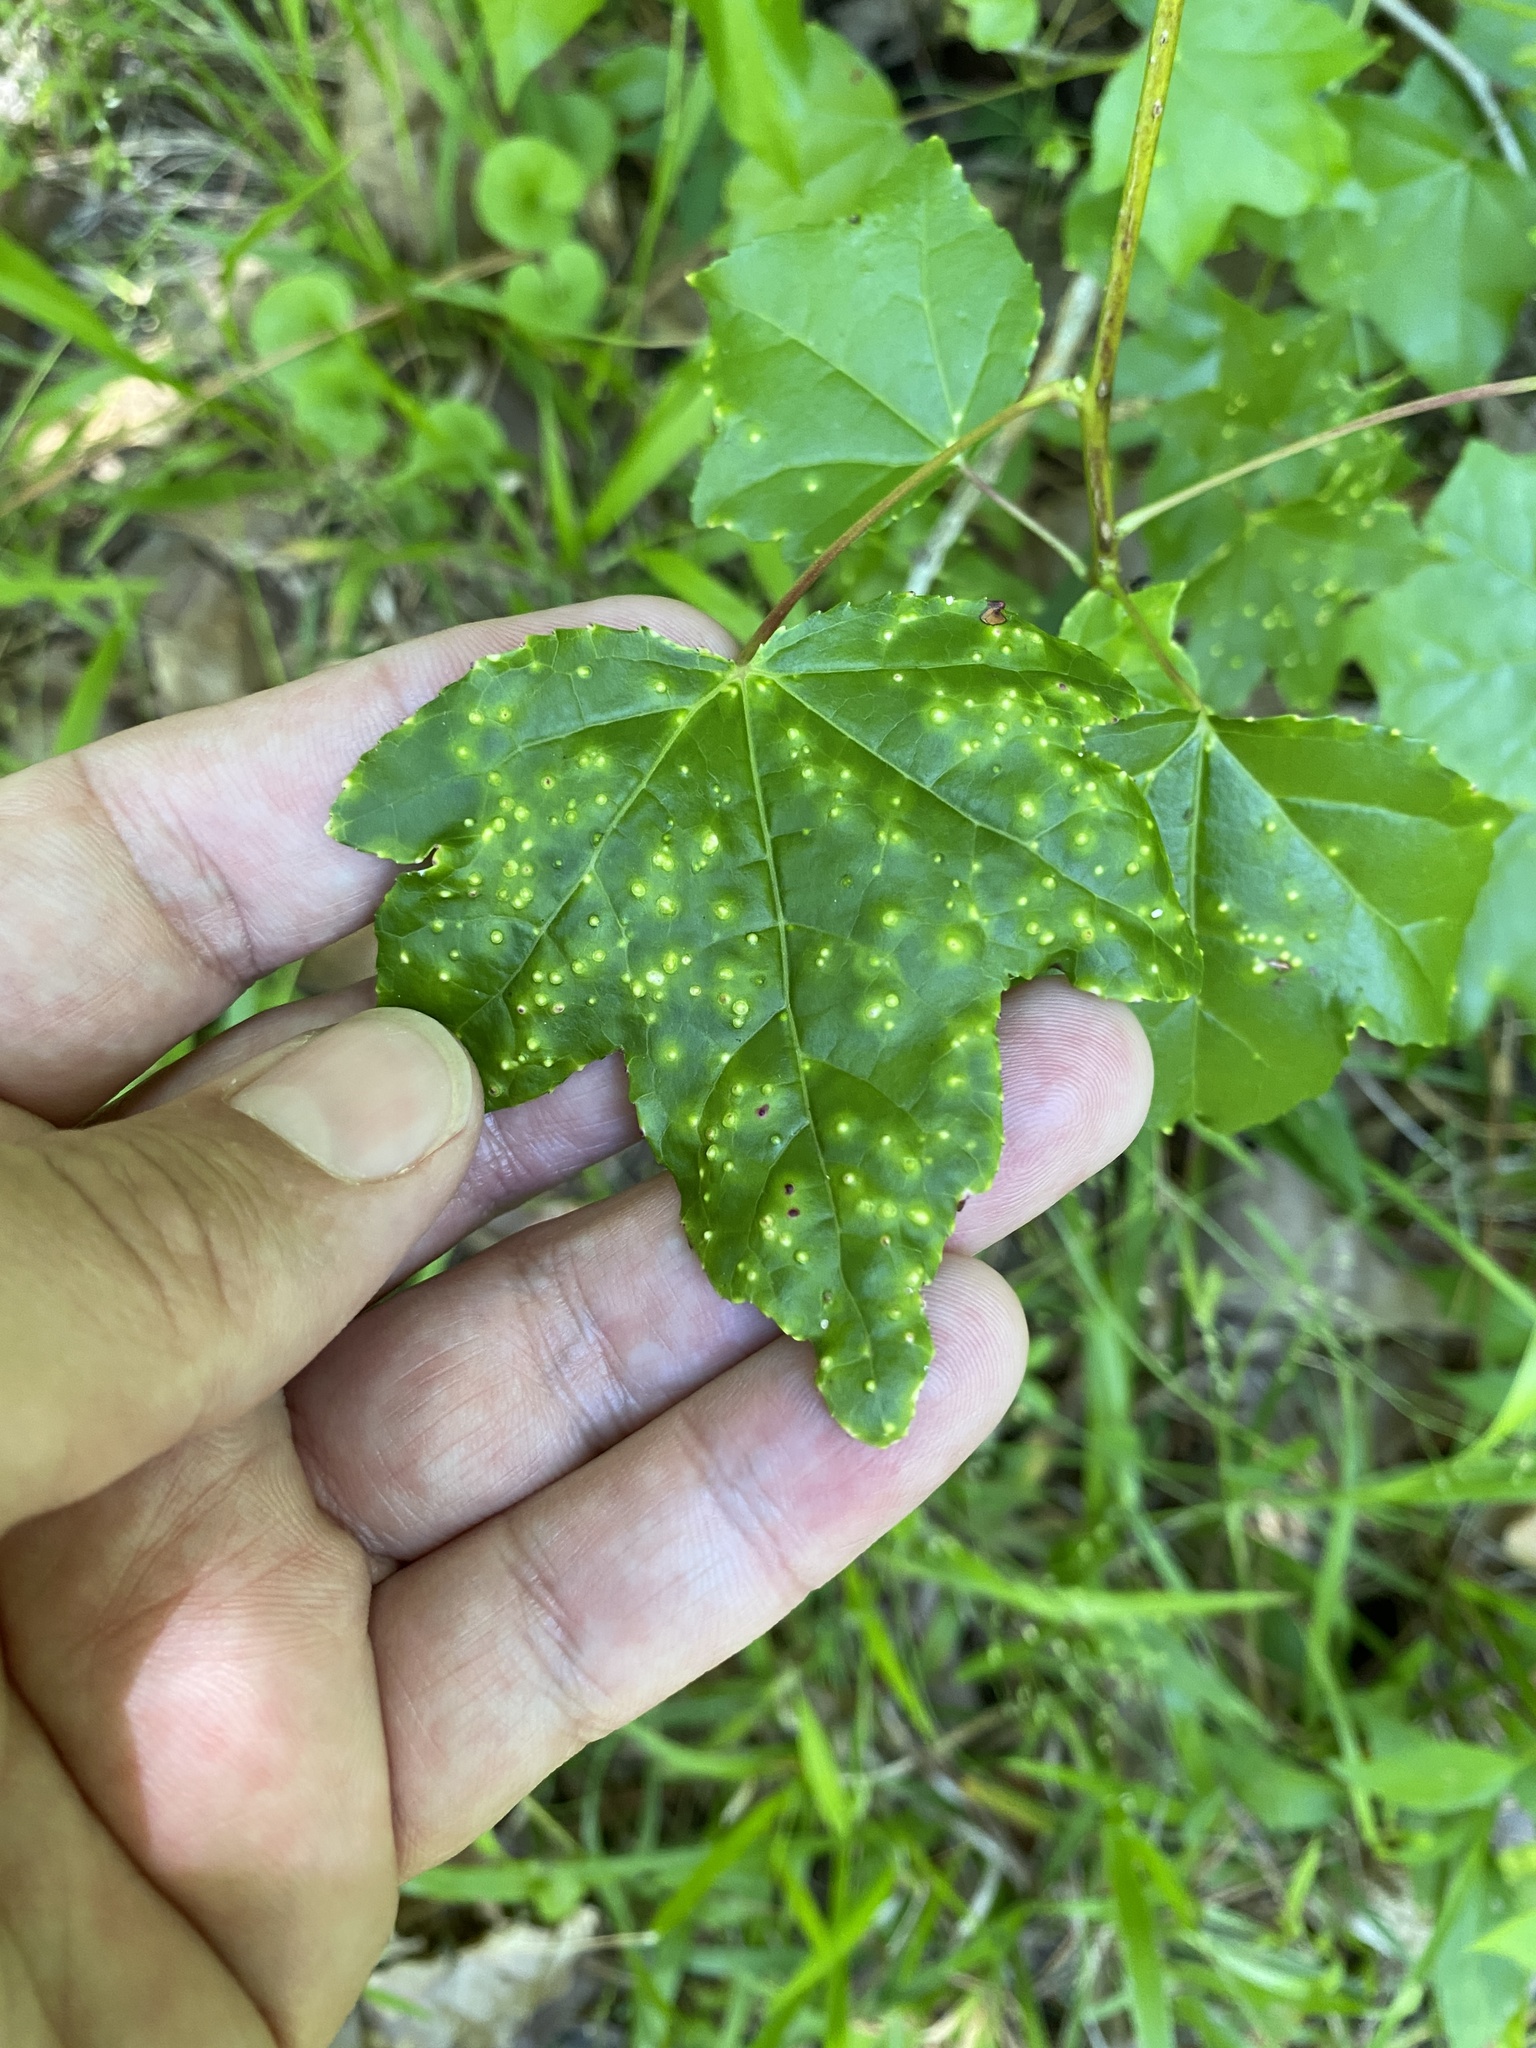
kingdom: Animalia
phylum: Arthropoda
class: Insecta
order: Hemiptera
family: Diaspididae
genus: Diaspidiotus
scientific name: Diaspidiotus liquidambaris
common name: Sweet gum scale
